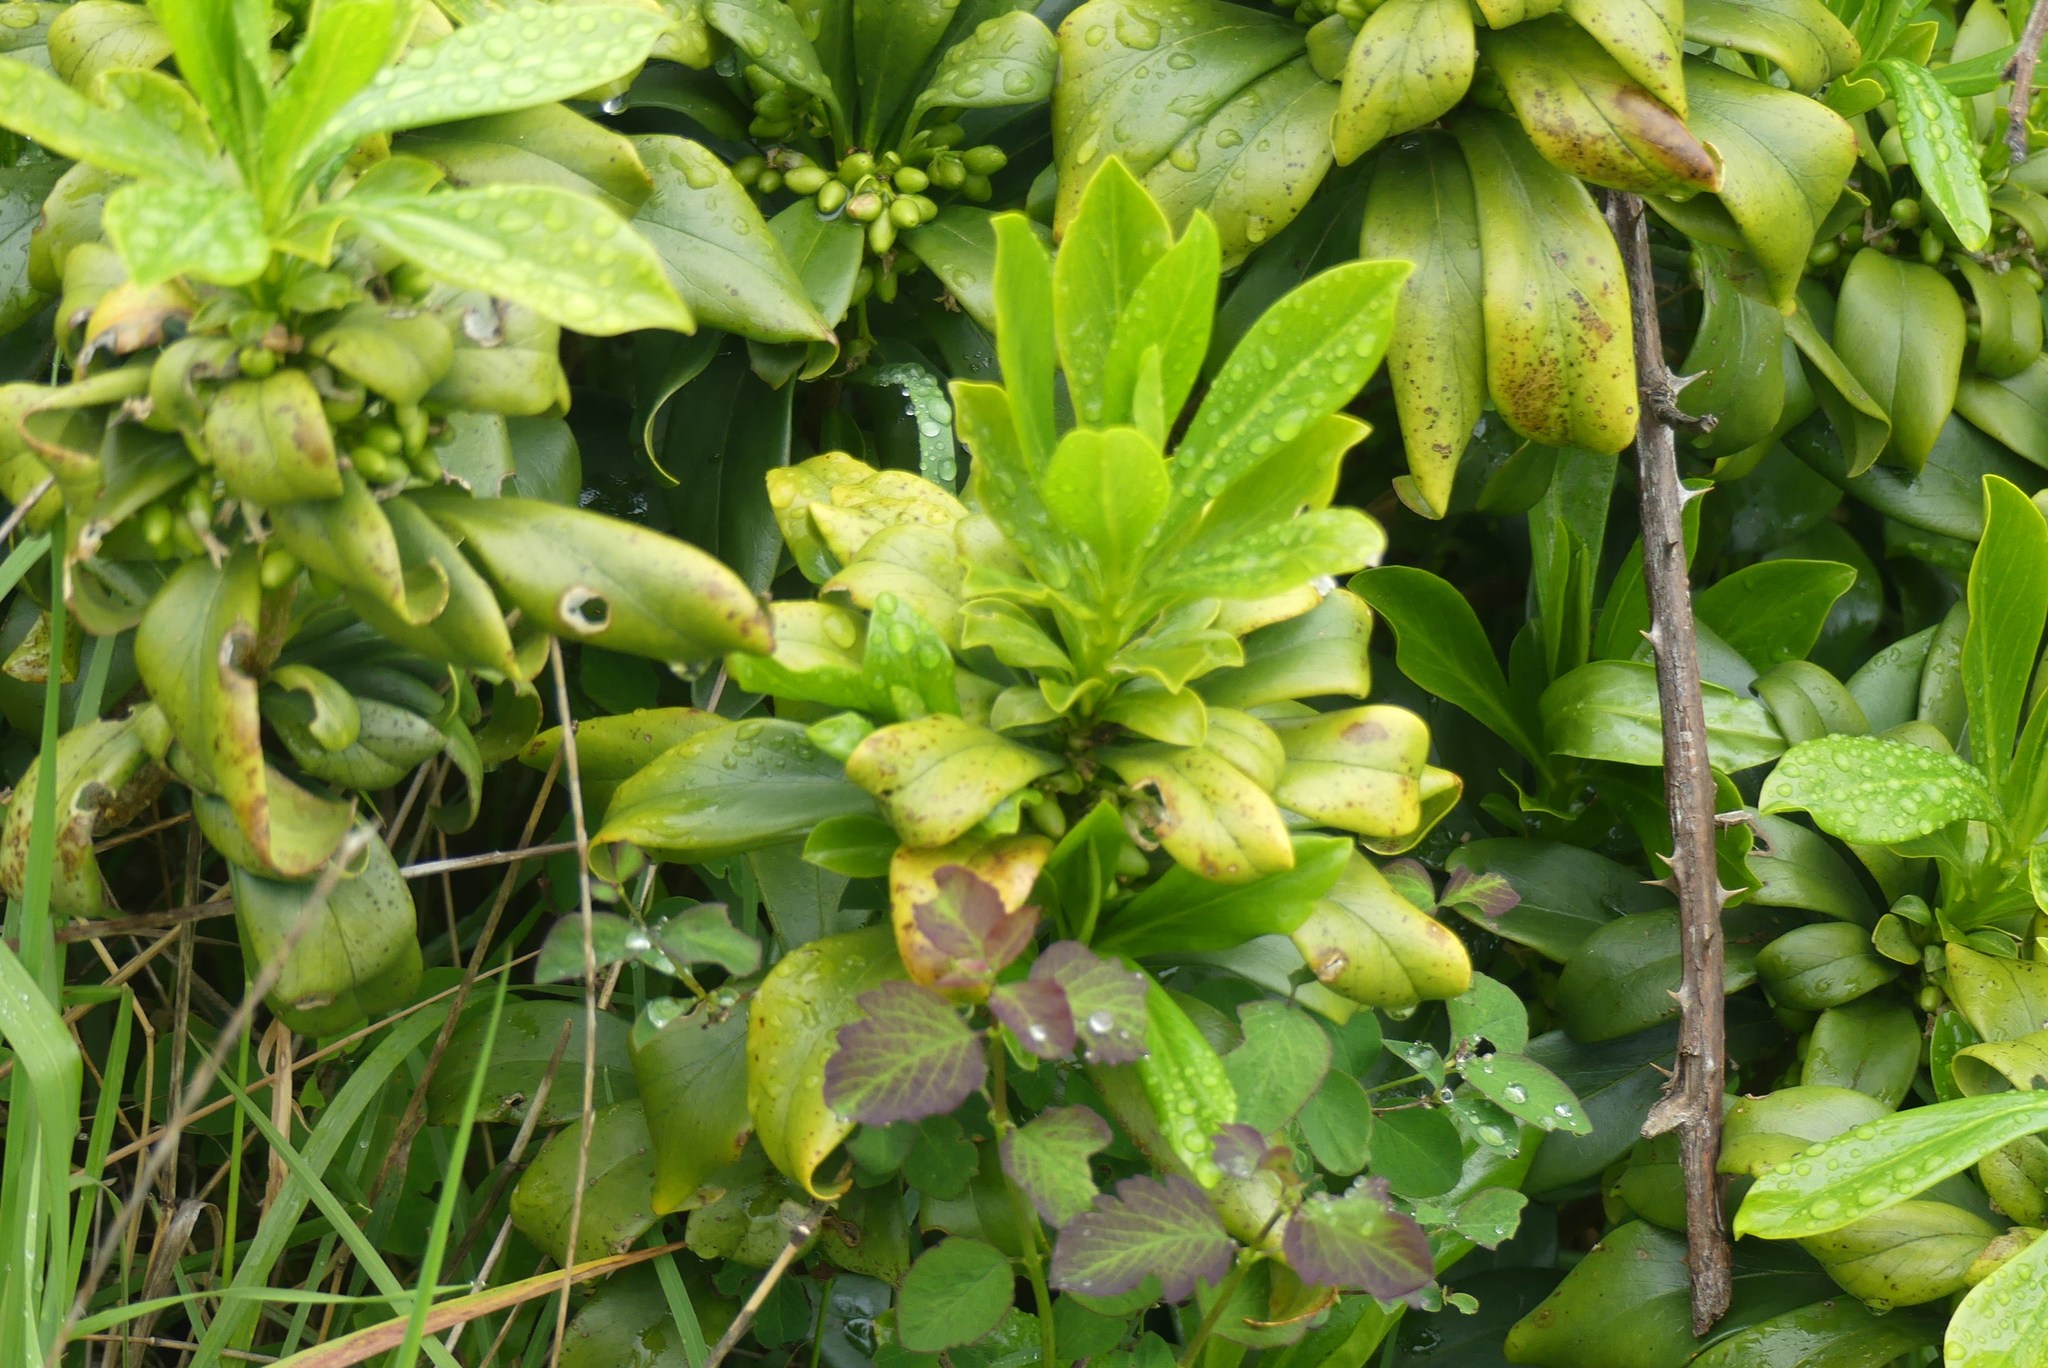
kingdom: Plantae
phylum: Tracheophyta
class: Magnoliopsida
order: Malvales
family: Thymelaeaceae
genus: Daphne
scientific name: Daphne laureola
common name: Spurge-laurel
